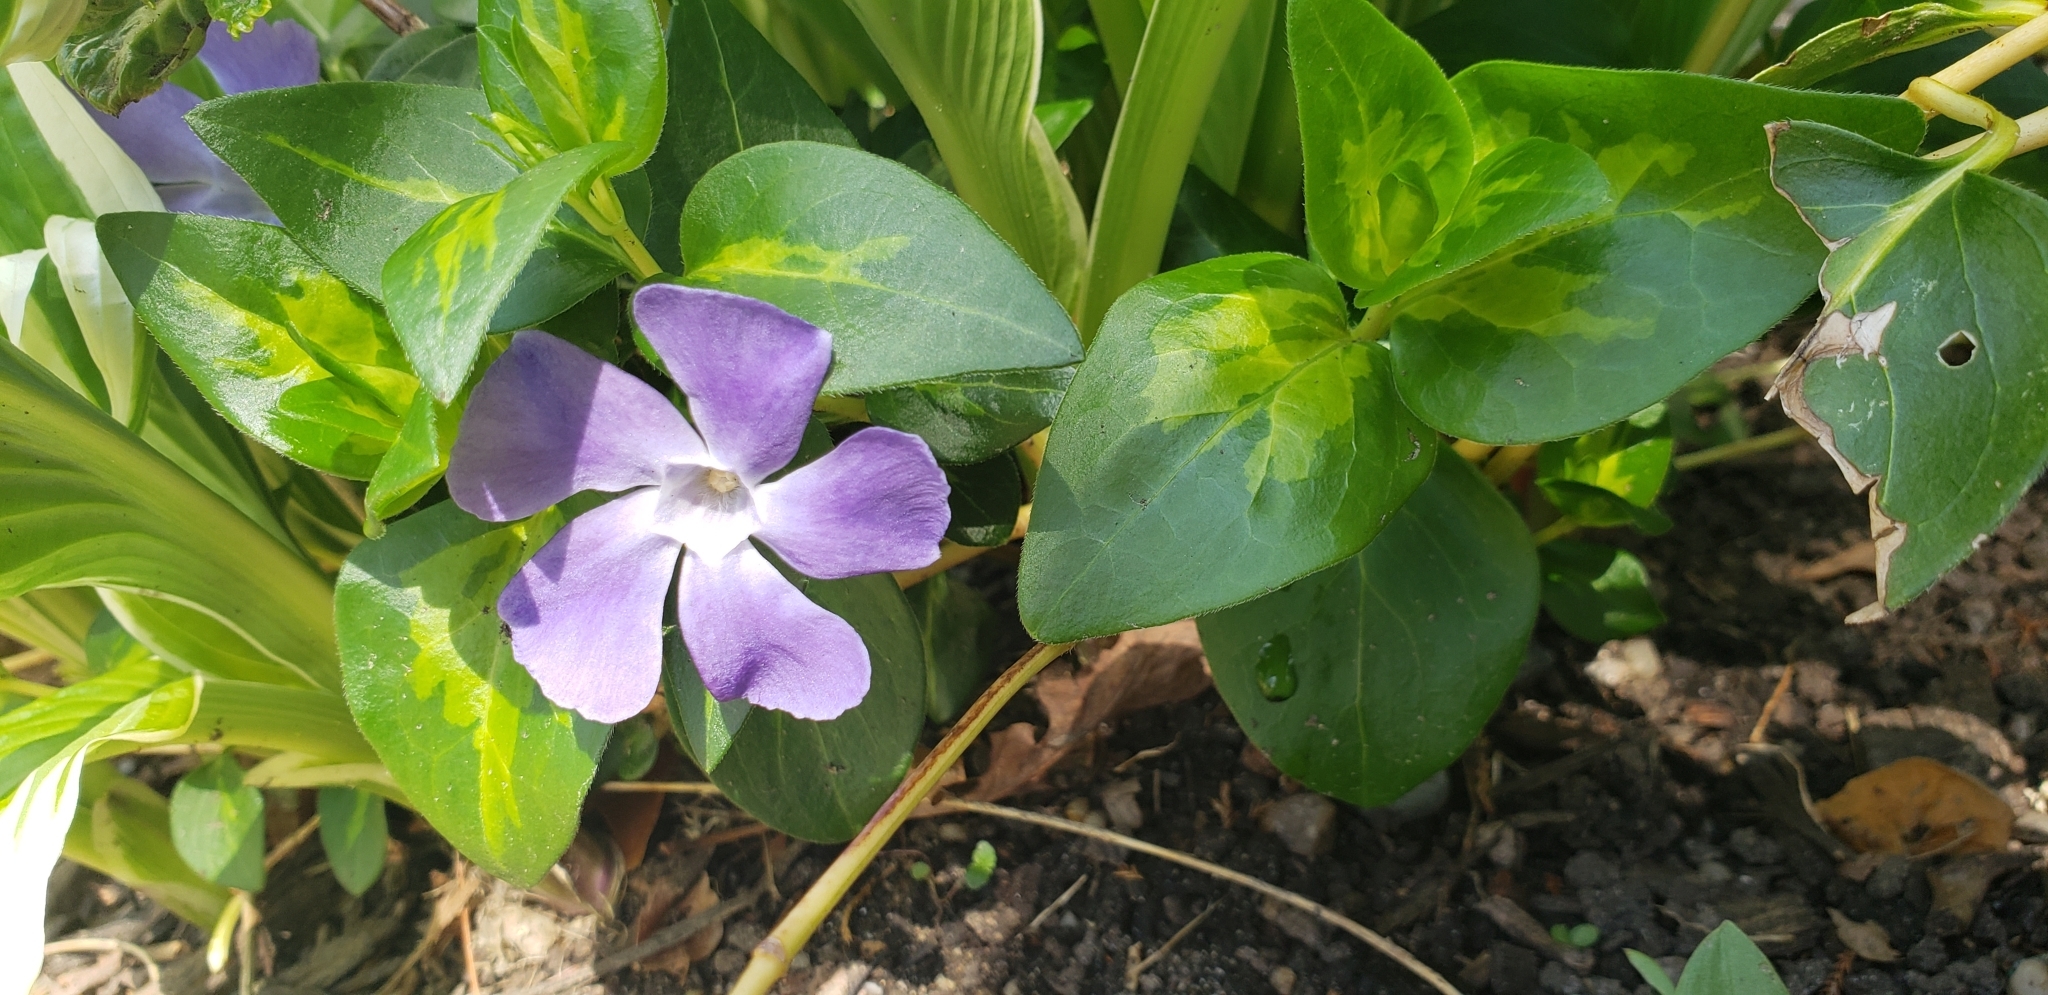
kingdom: Plantae
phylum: Tracheophyta
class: Magnoliopsida
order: Gentianales
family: Apocynaceae
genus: Vinca
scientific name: Vinca major
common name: Greater periwinkle
